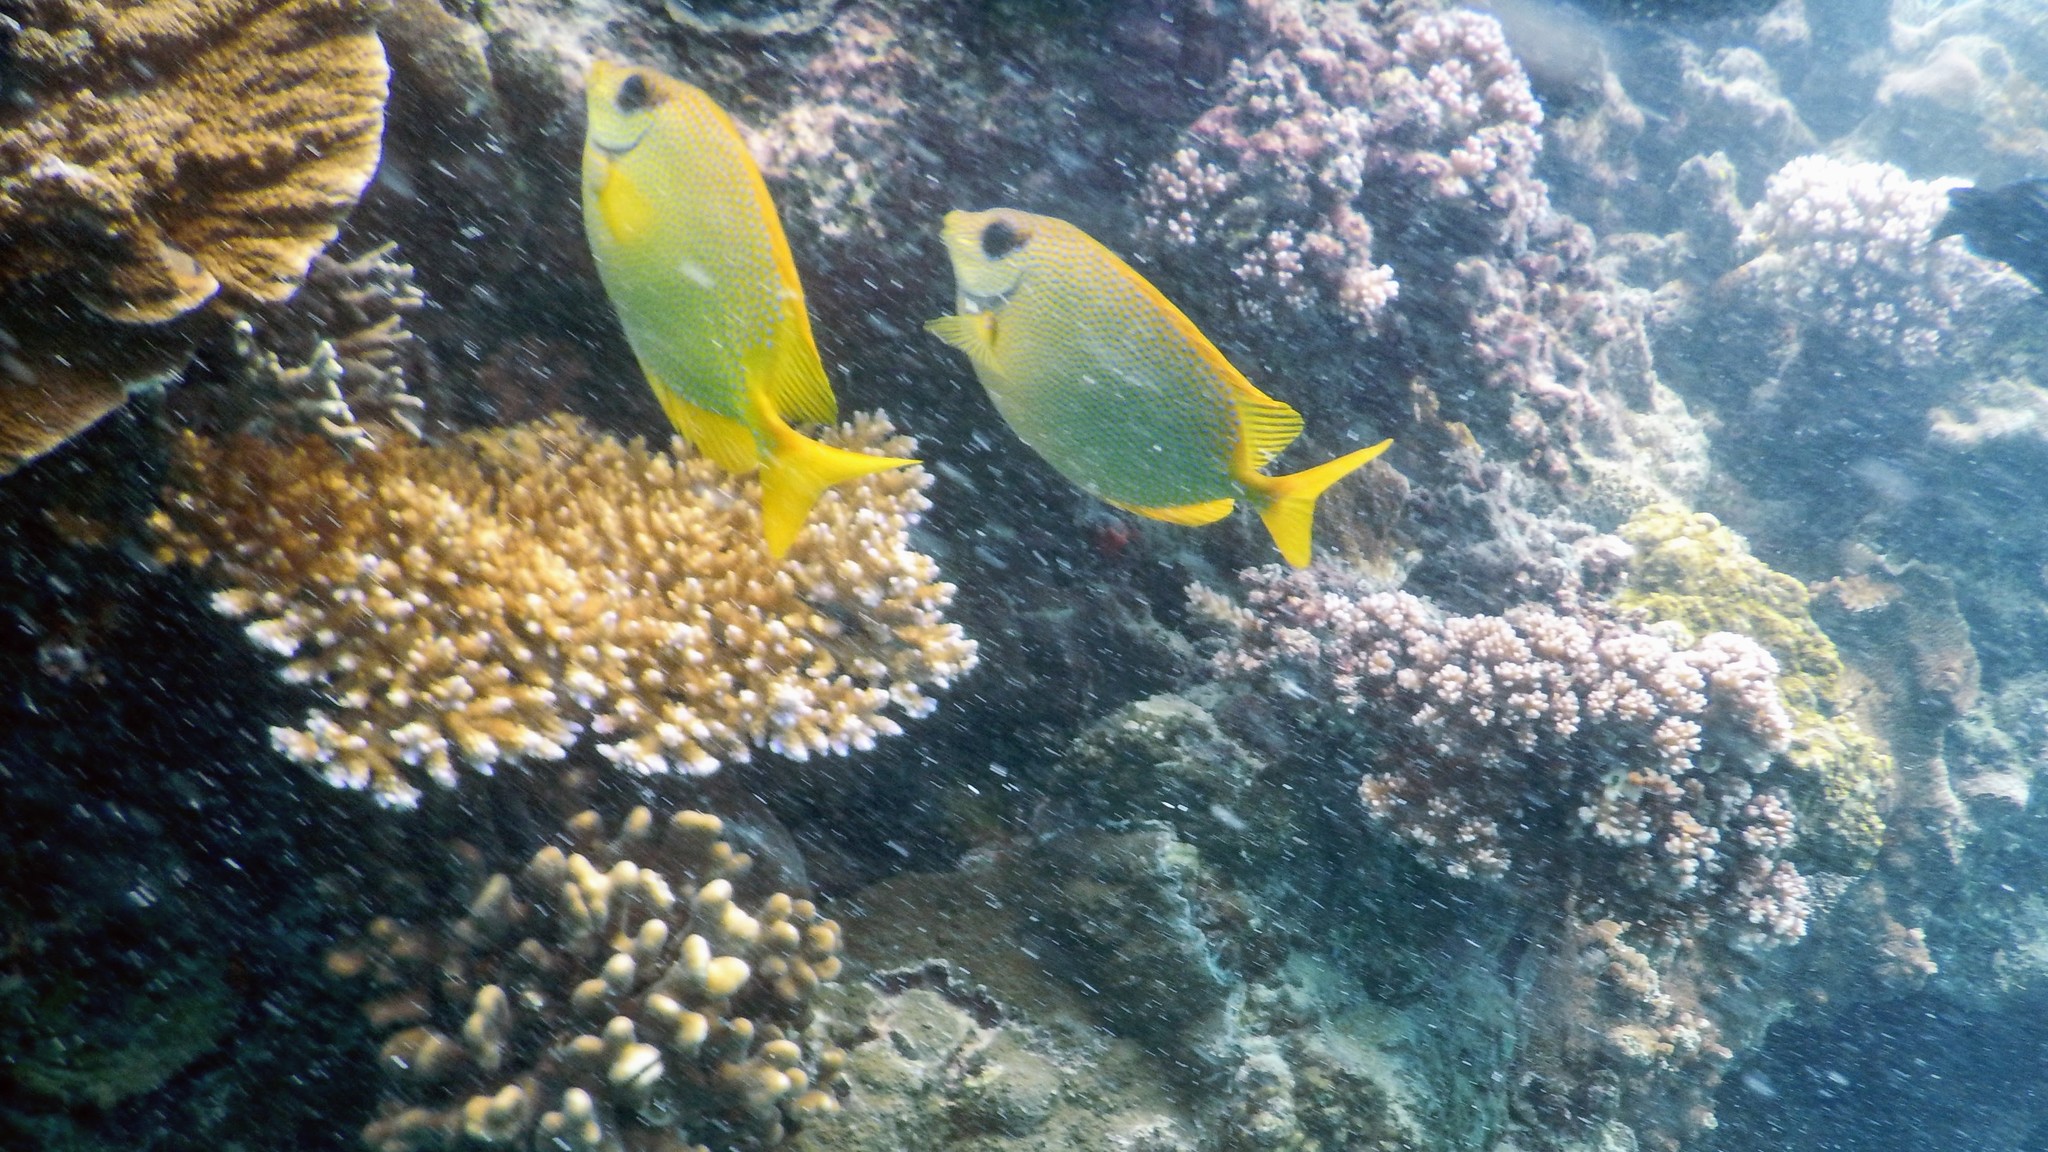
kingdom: Animalia
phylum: Chordata
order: Perciformes
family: Siganidae
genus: Siganus
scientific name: Siganus corallinus
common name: Coral rabbitfish
